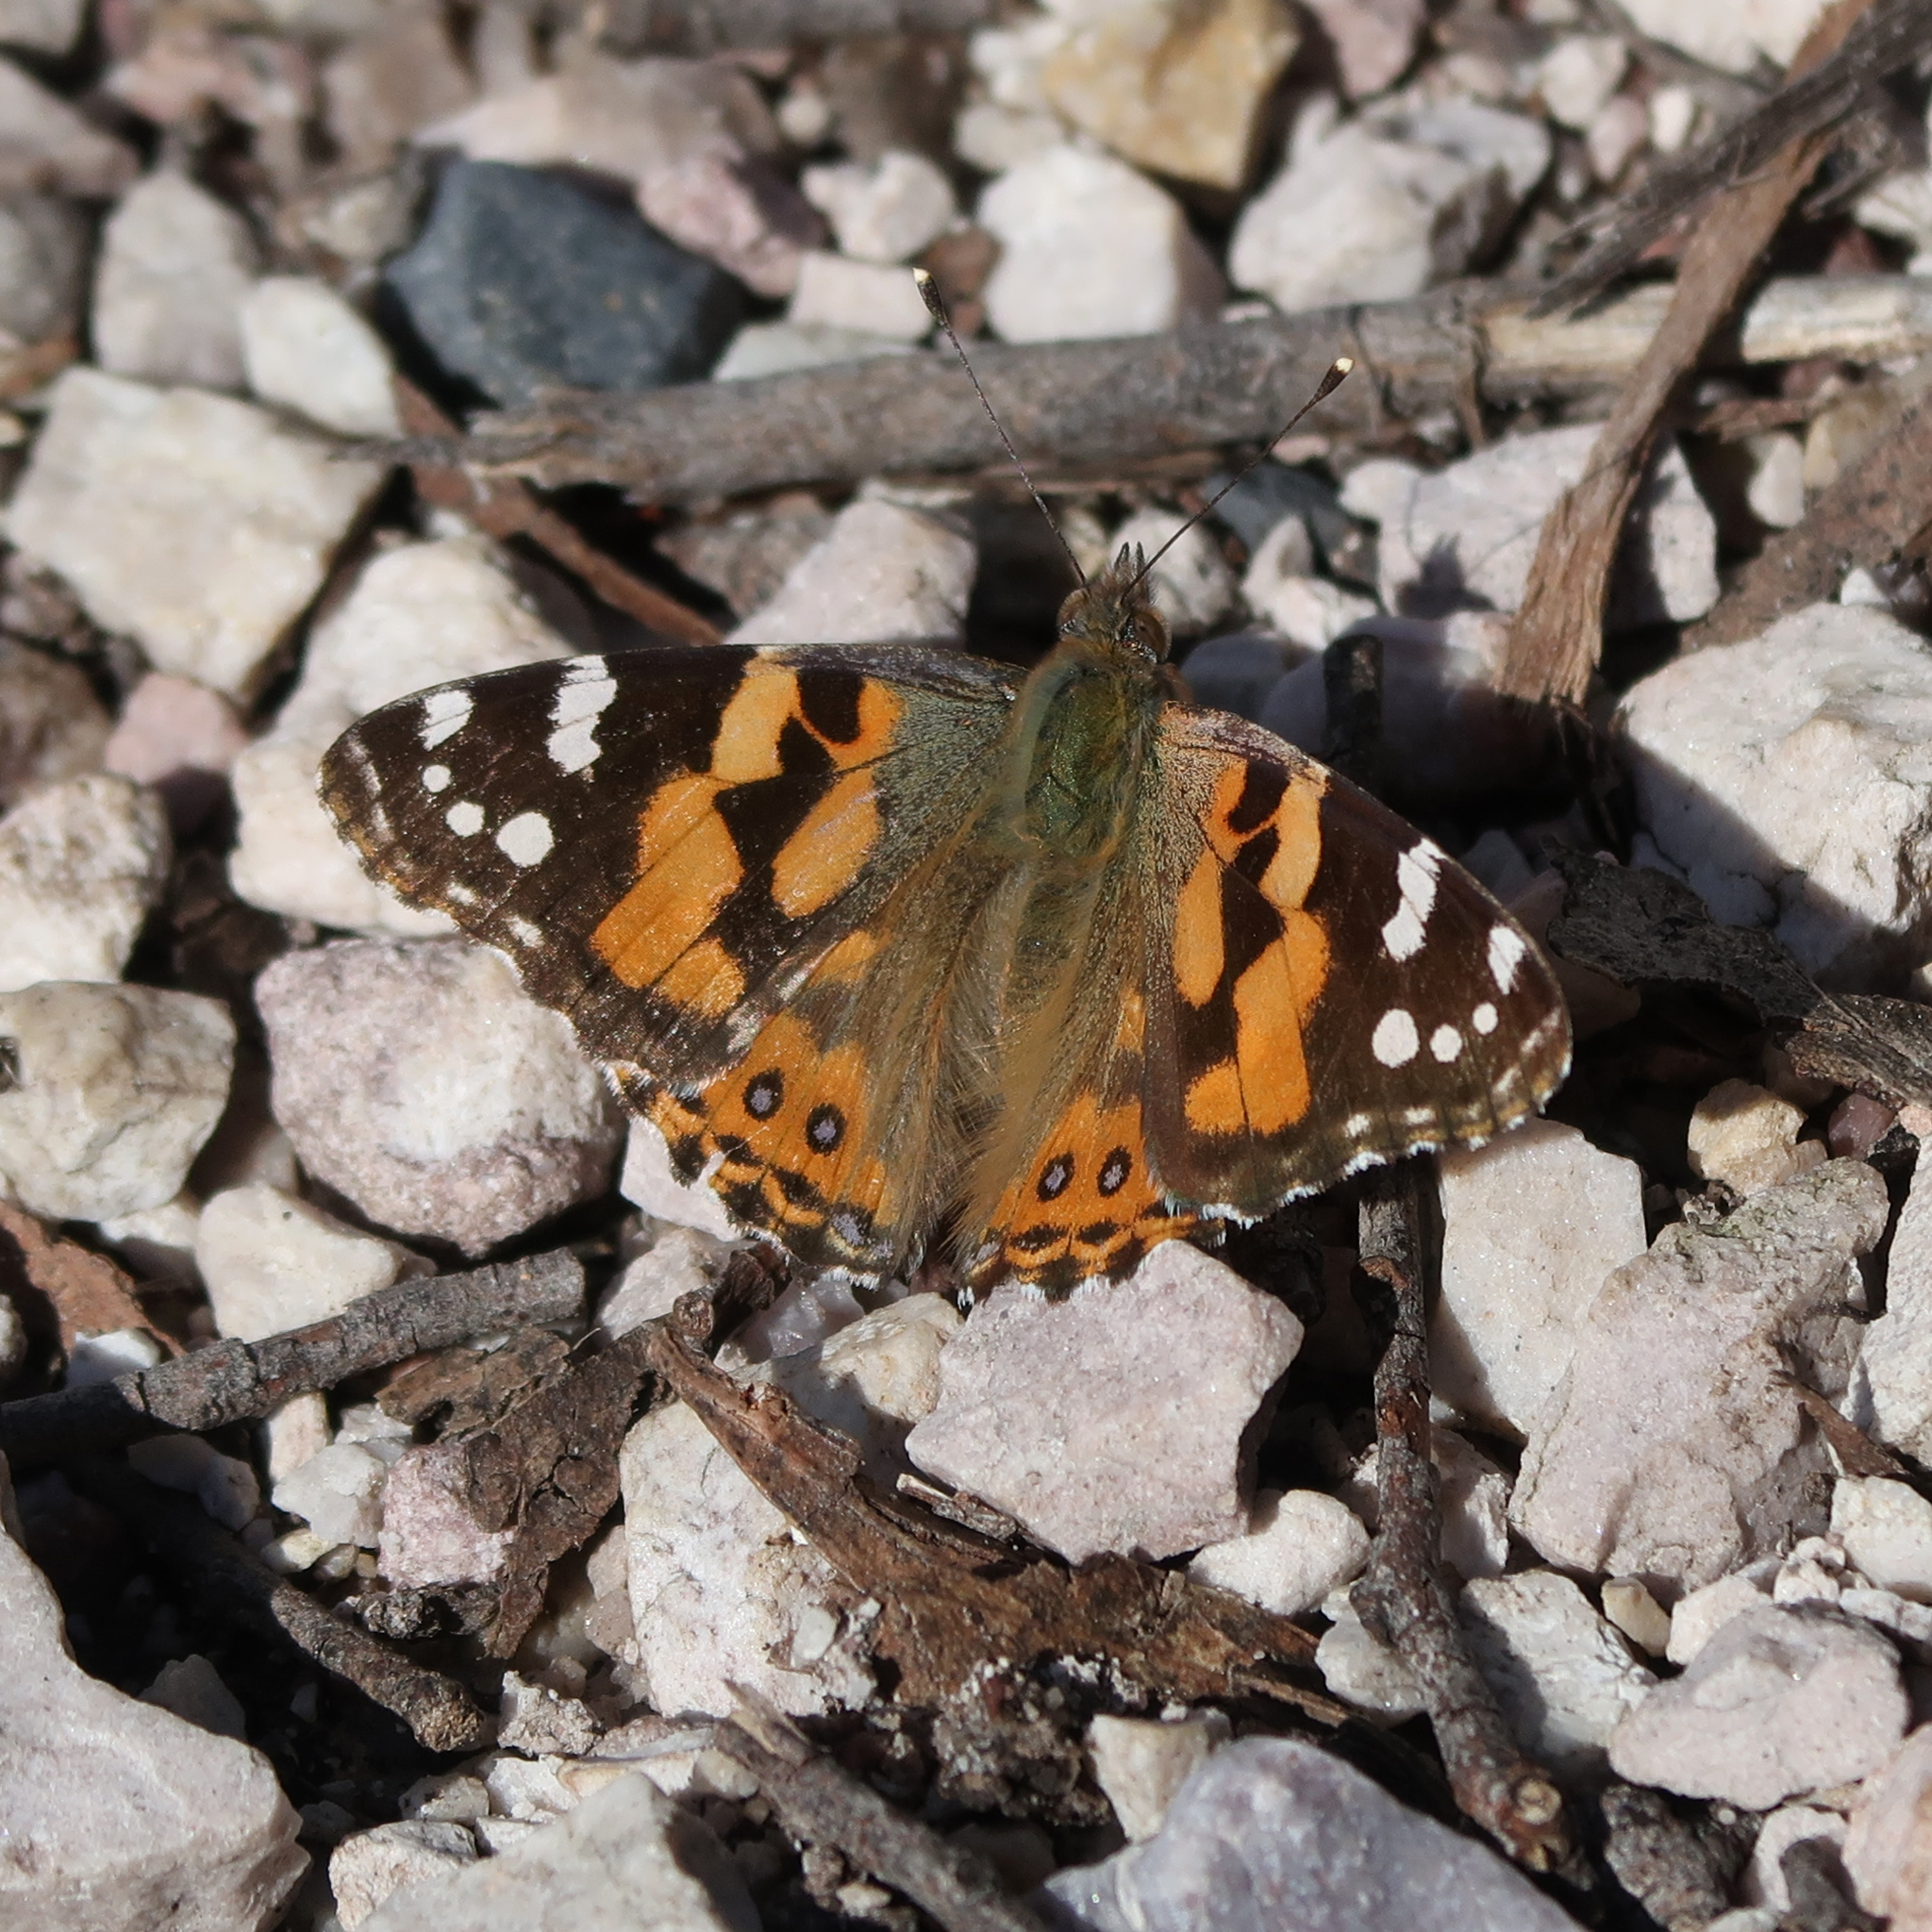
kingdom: Animalia
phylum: Arthropoda
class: Insecta
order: Lepidoptera
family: Nymphalidae
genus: Vanessa
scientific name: Vanessa kershawi
